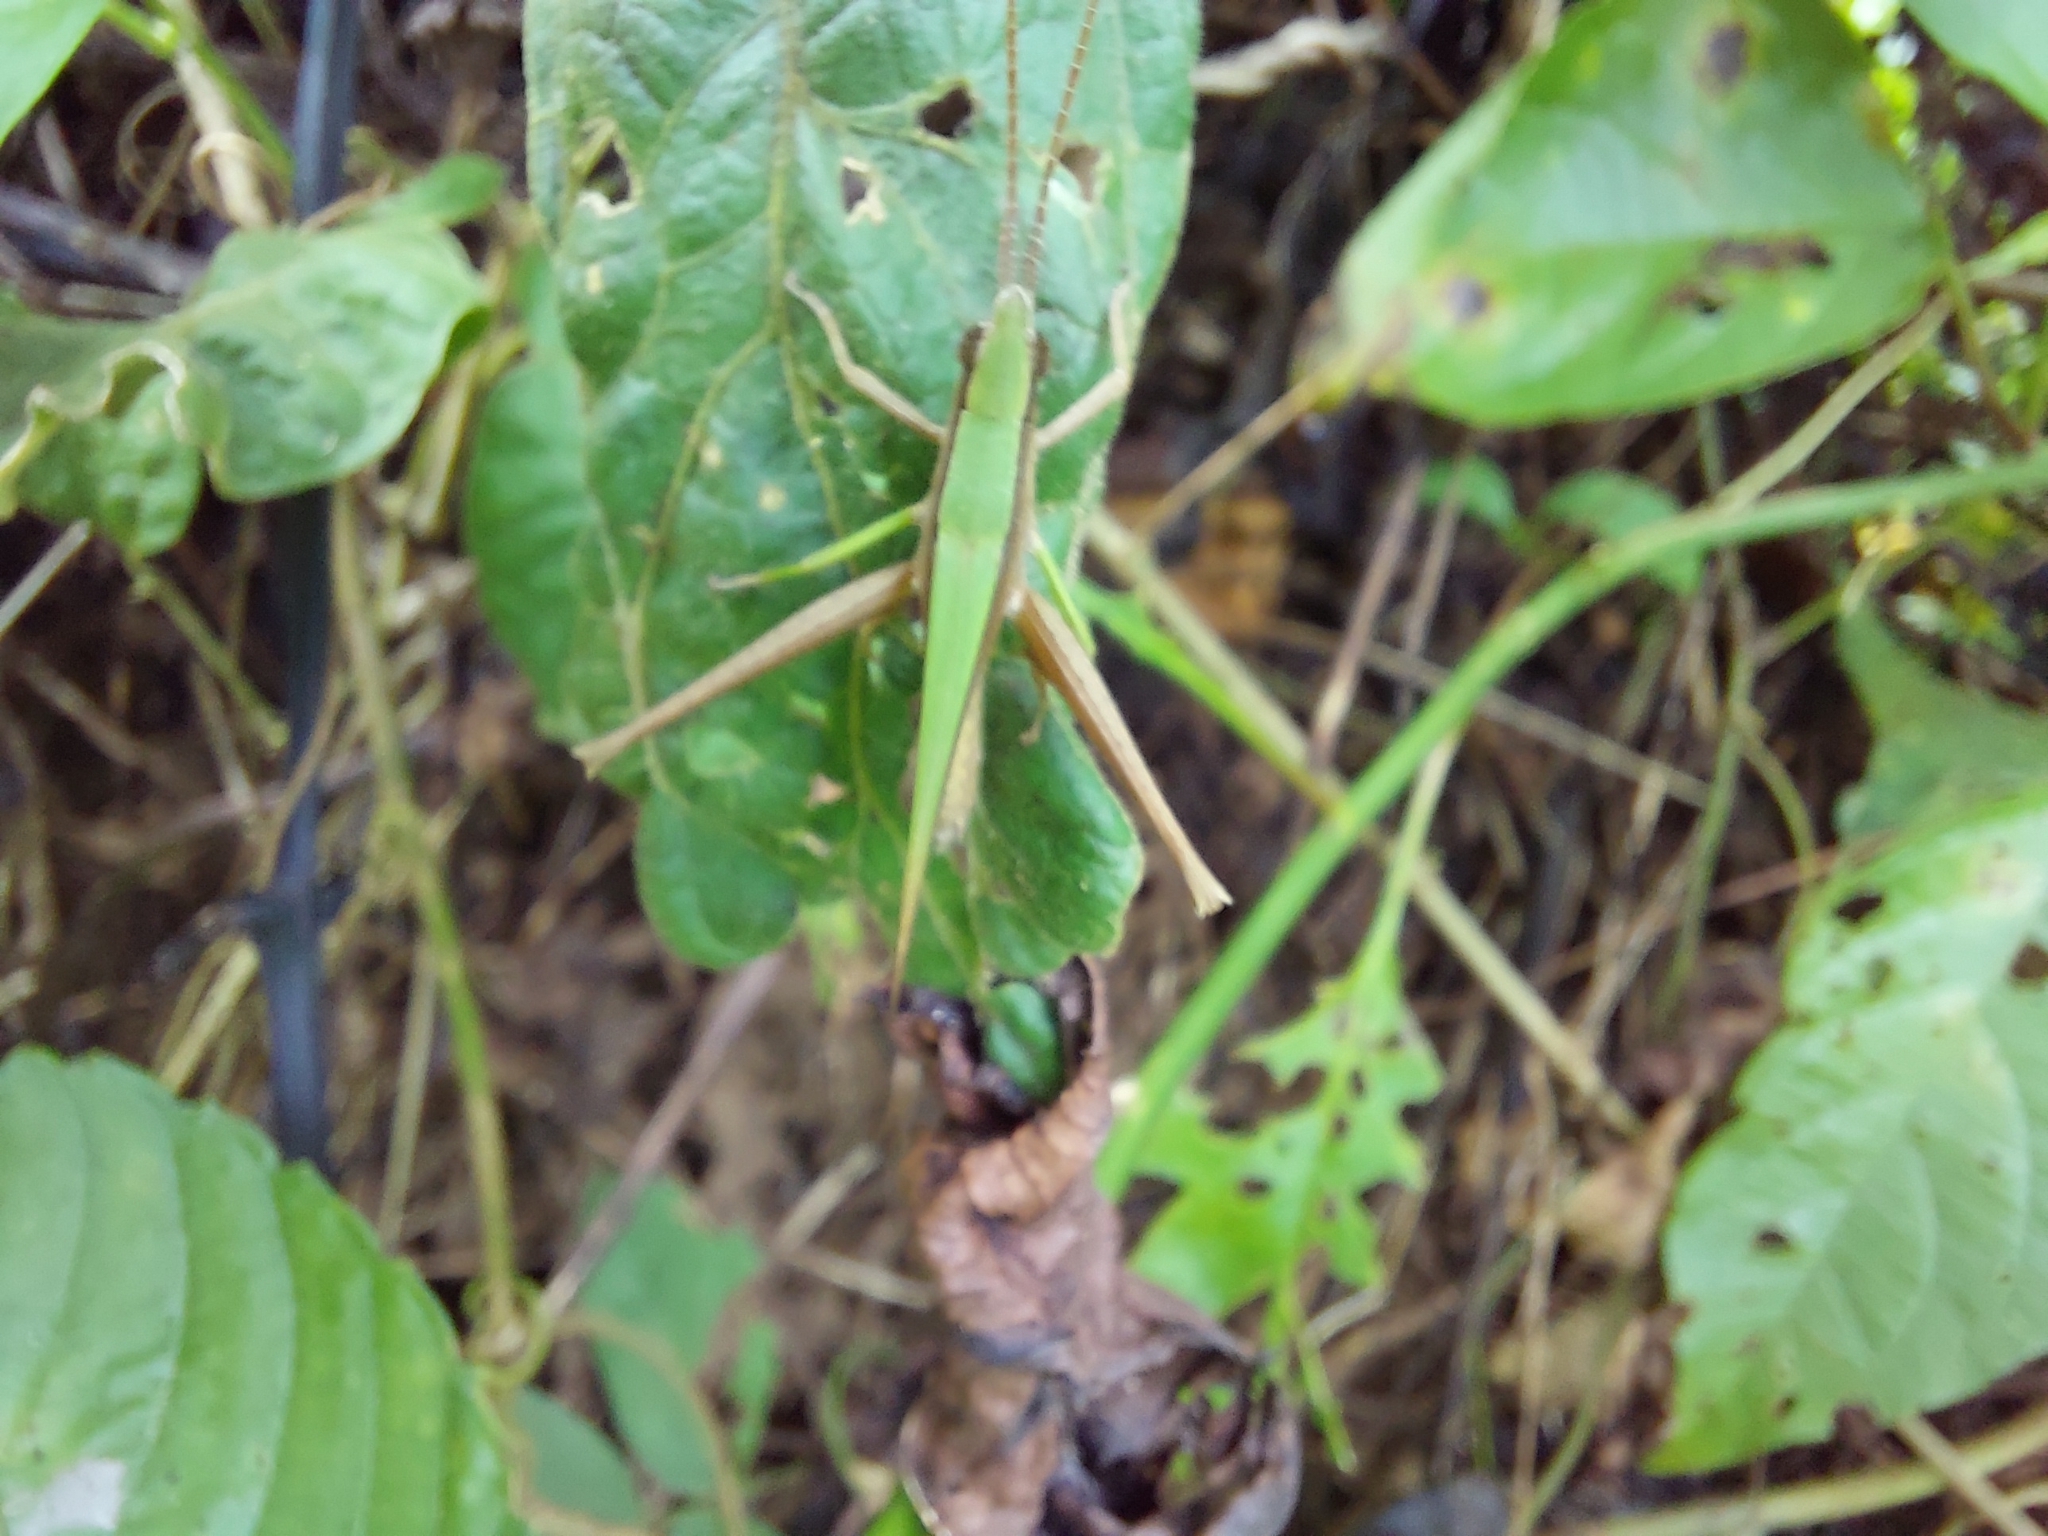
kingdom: Animalia
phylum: Arthropoda
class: Insecta
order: Orthoptera
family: Acrididae
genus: Metaleptea
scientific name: Metaleptea adspersa
